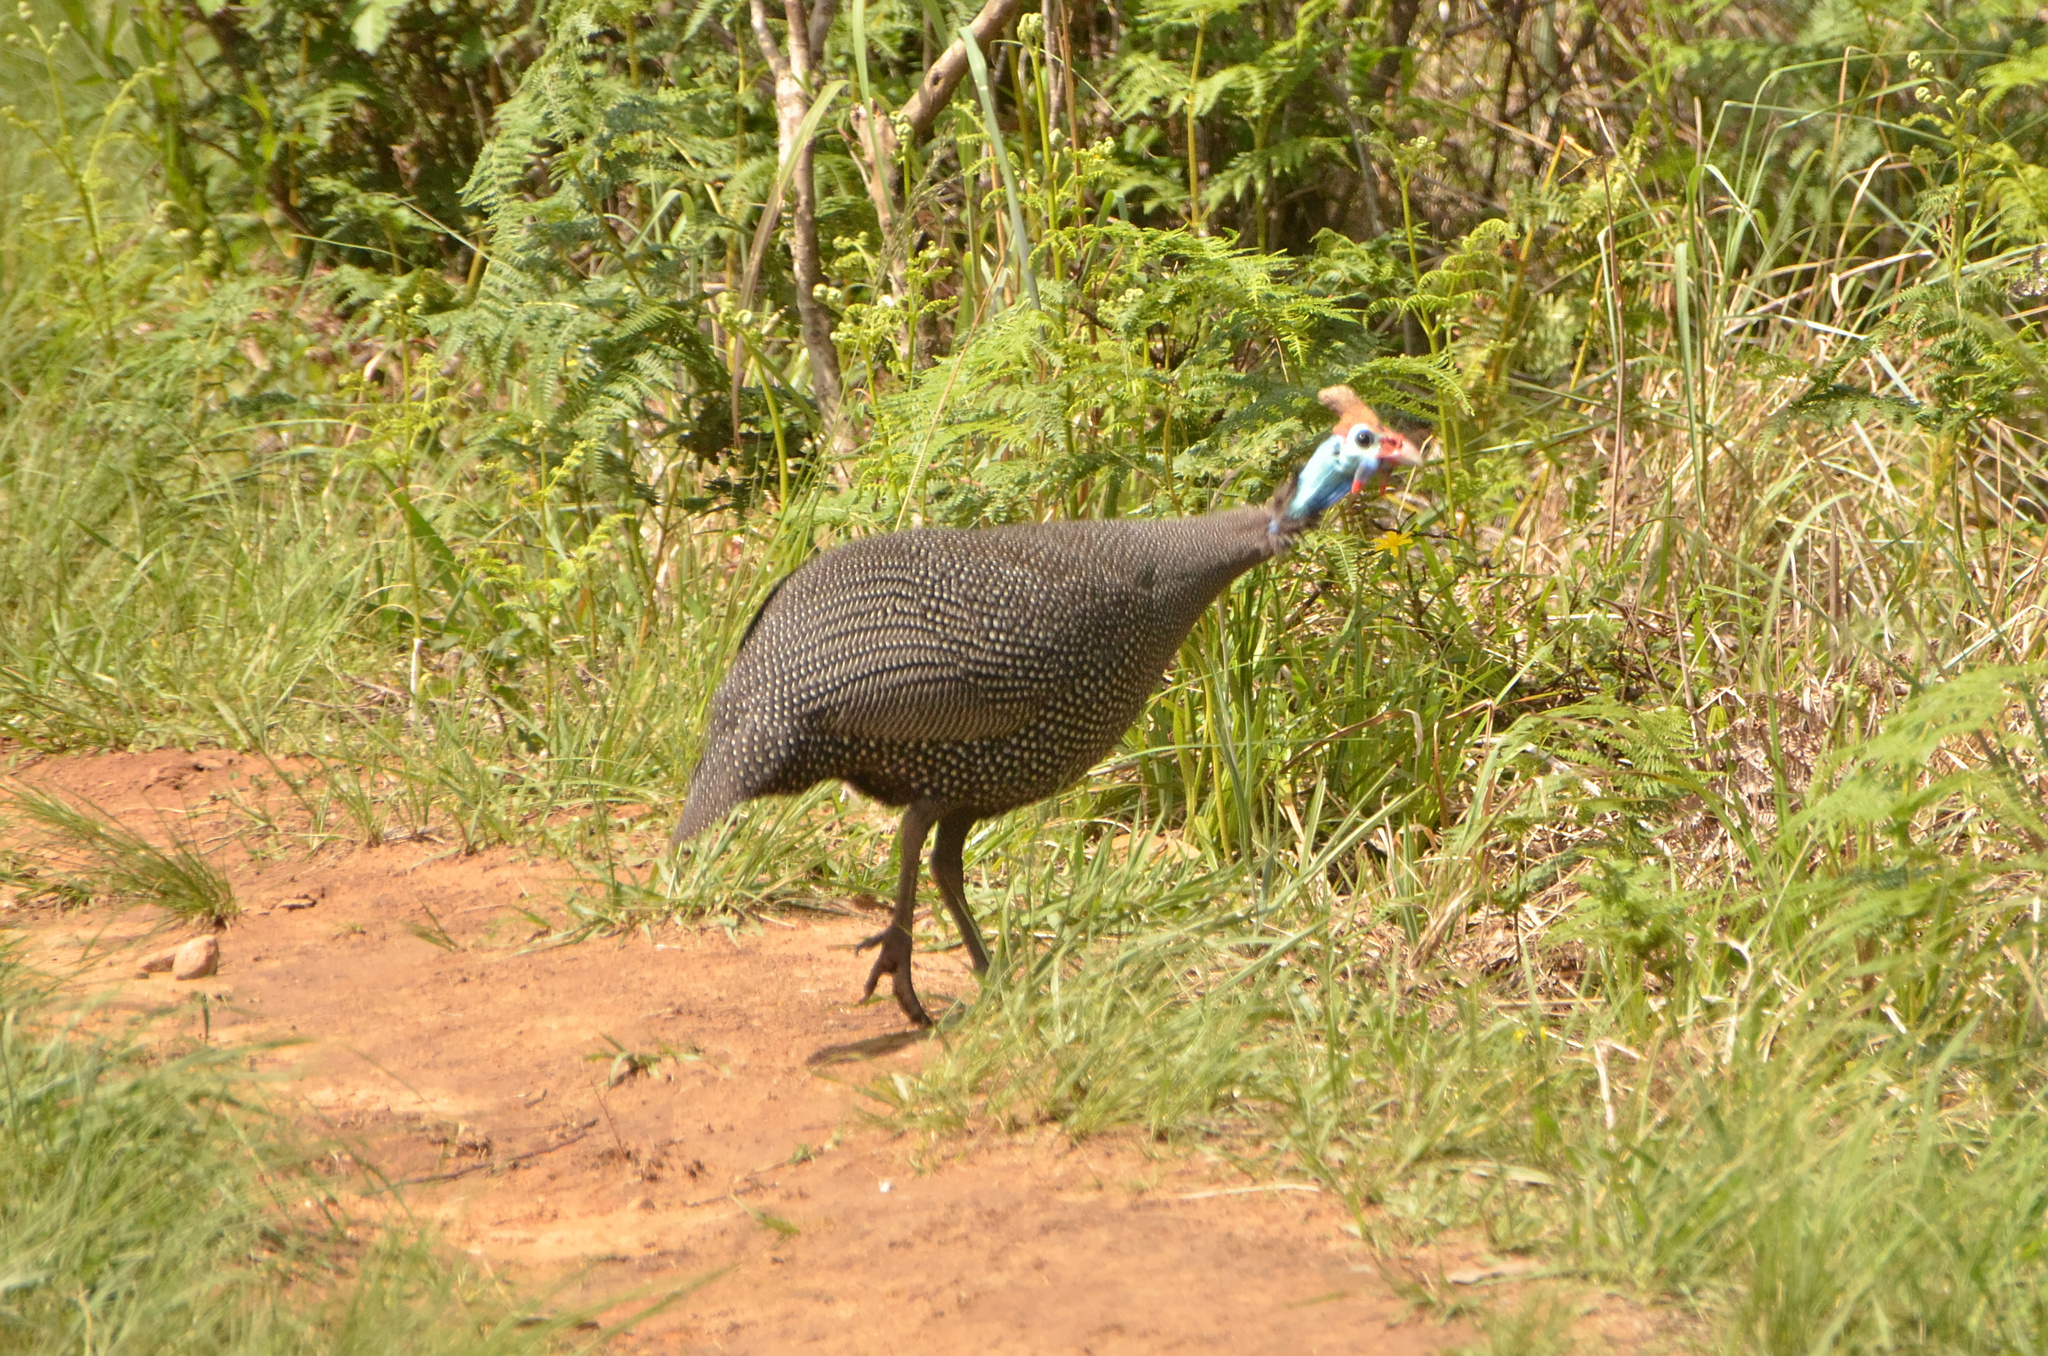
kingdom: Animalia
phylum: Chordata
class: Aves
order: Galliformes
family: Numididae
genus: Numida
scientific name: Numida meleagris
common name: Helmeted guineafowl
